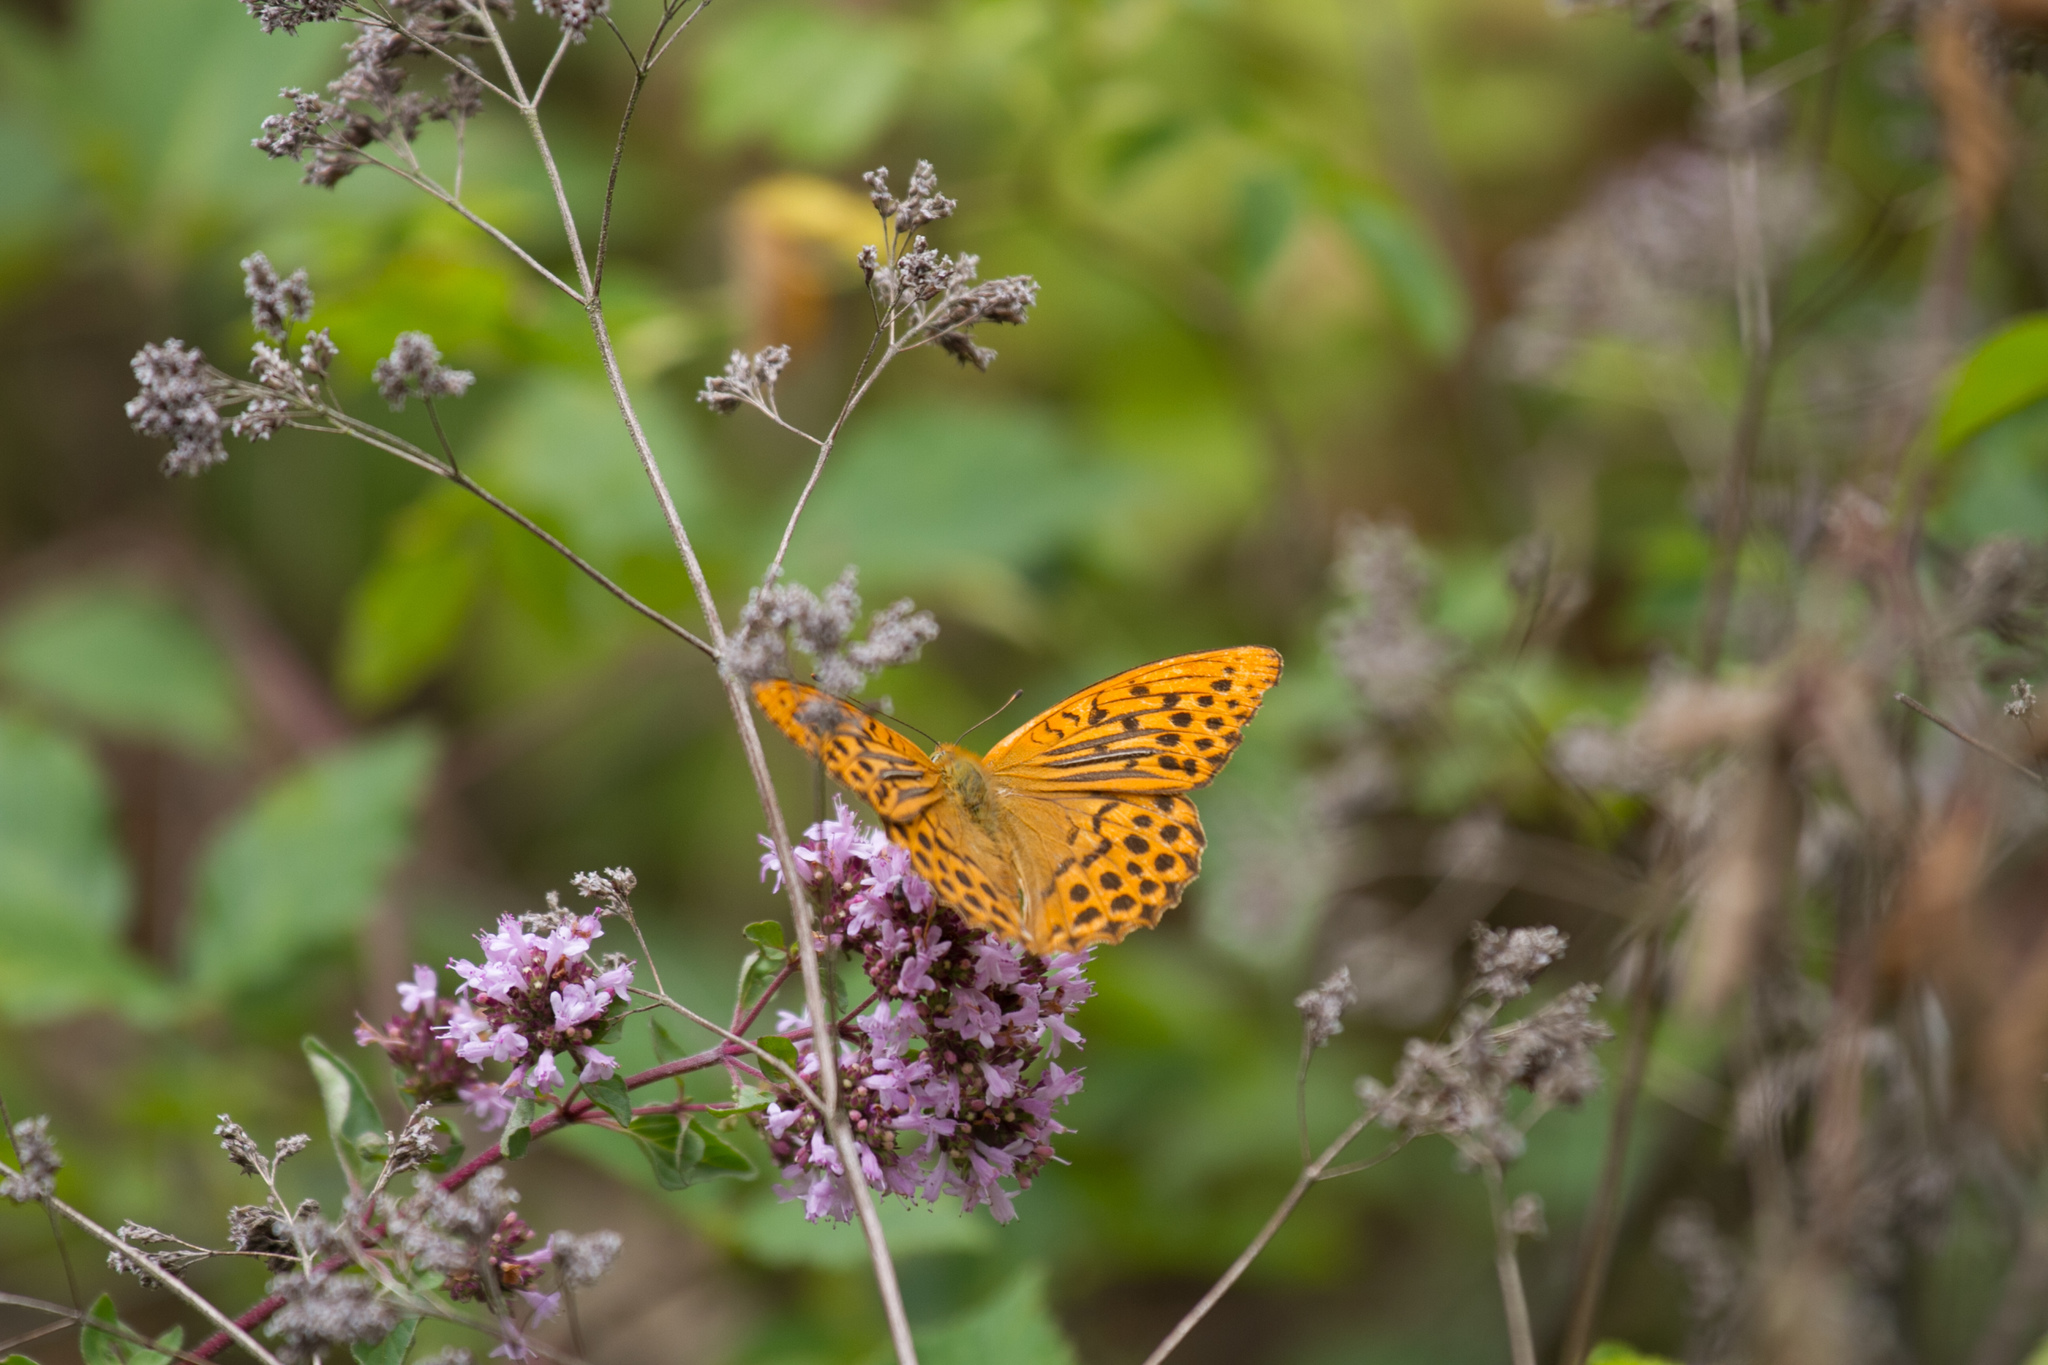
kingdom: Animalia
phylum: Arthropoda
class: Insecta
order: Lepidoptera
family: Nymphalidae
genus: Argynnis
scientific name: Argynnis paphia
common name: Silver-washed fritillary
